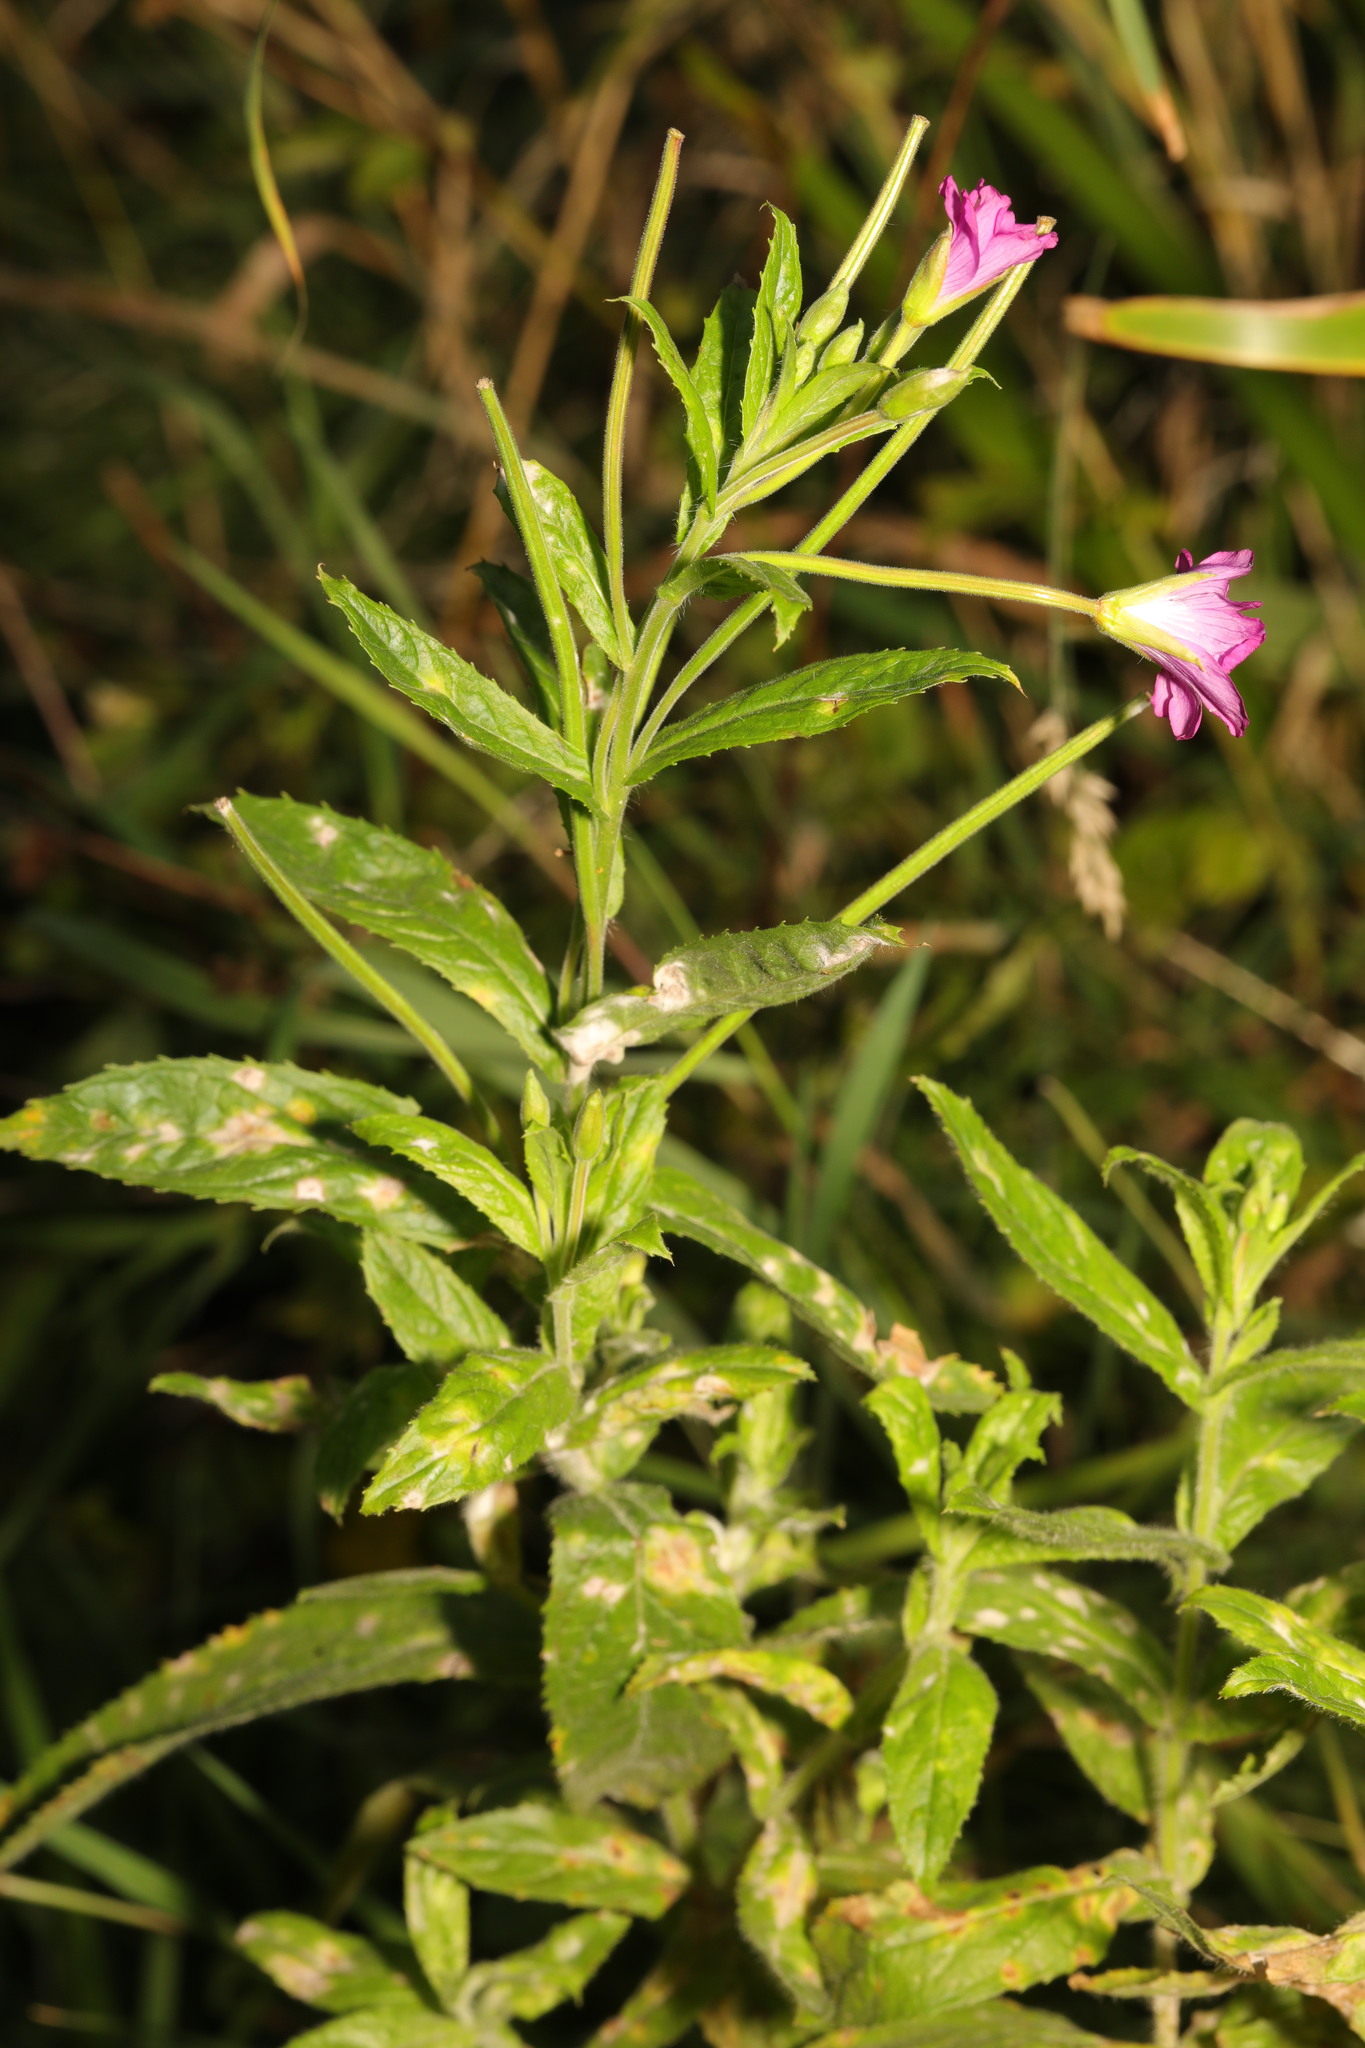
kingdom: Plantae
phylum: Tracheophyta
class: Magnoliopsida
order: Myrtales
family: Onagraceae
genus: Epilobium
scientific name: Epilobium hirsutum
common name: Great willowherb
